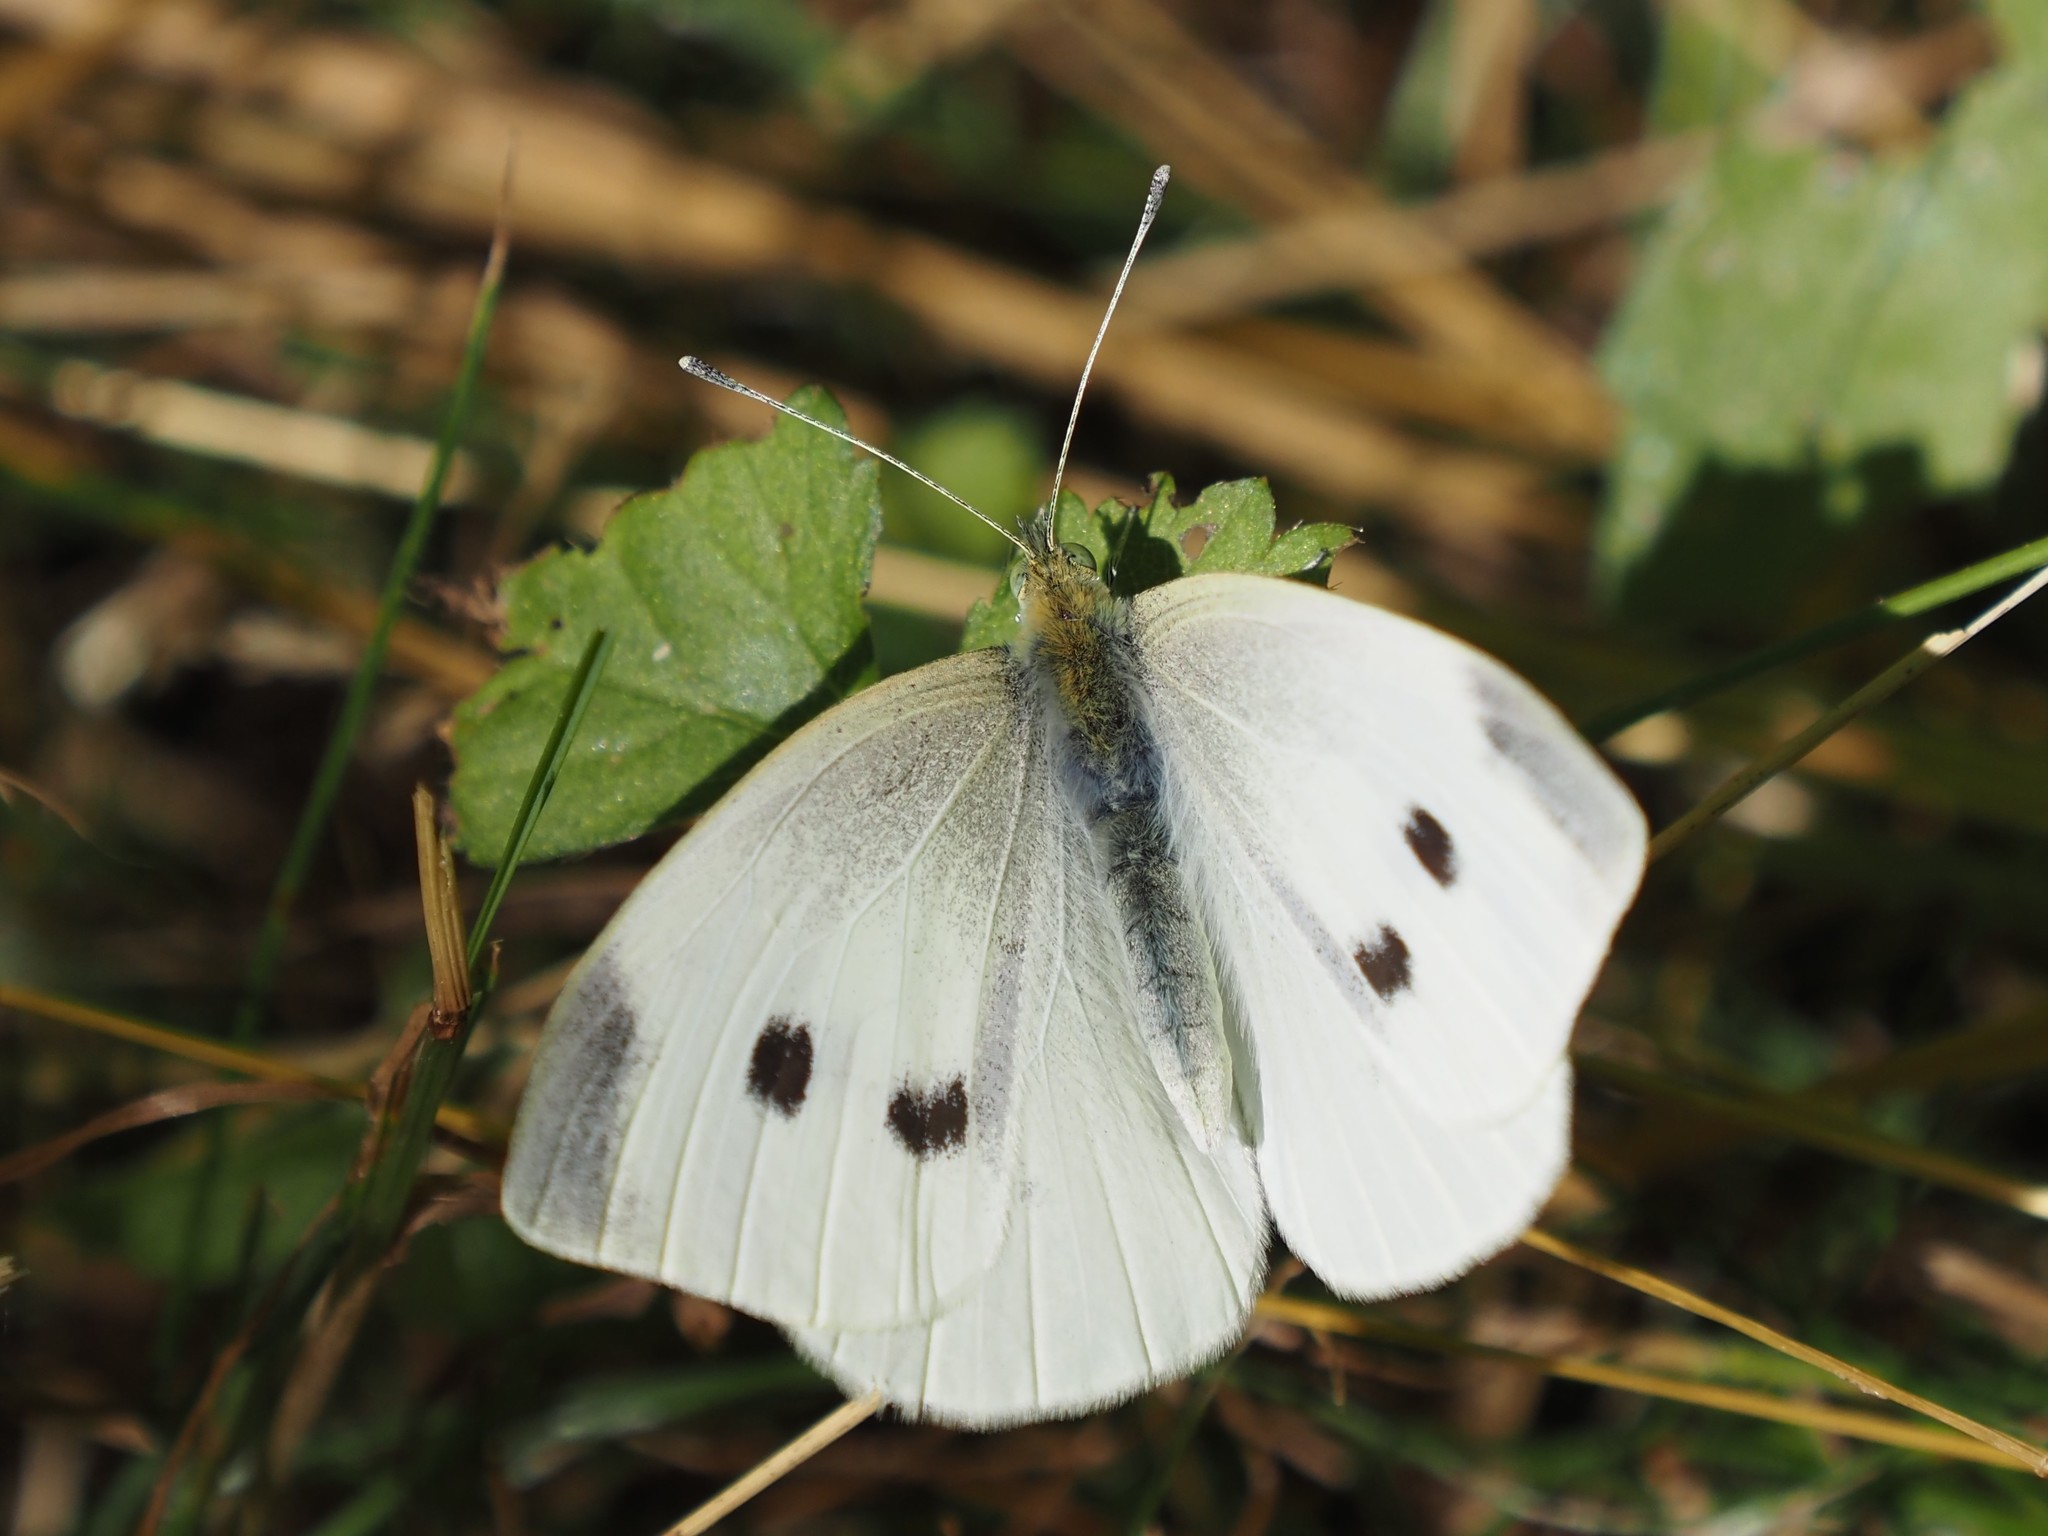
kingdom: Animalia
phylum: Arthropoda
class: Insecta
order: Lepidoptera
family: Pieridae
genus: Pieris
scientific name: Pieris rapae
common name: Small white
